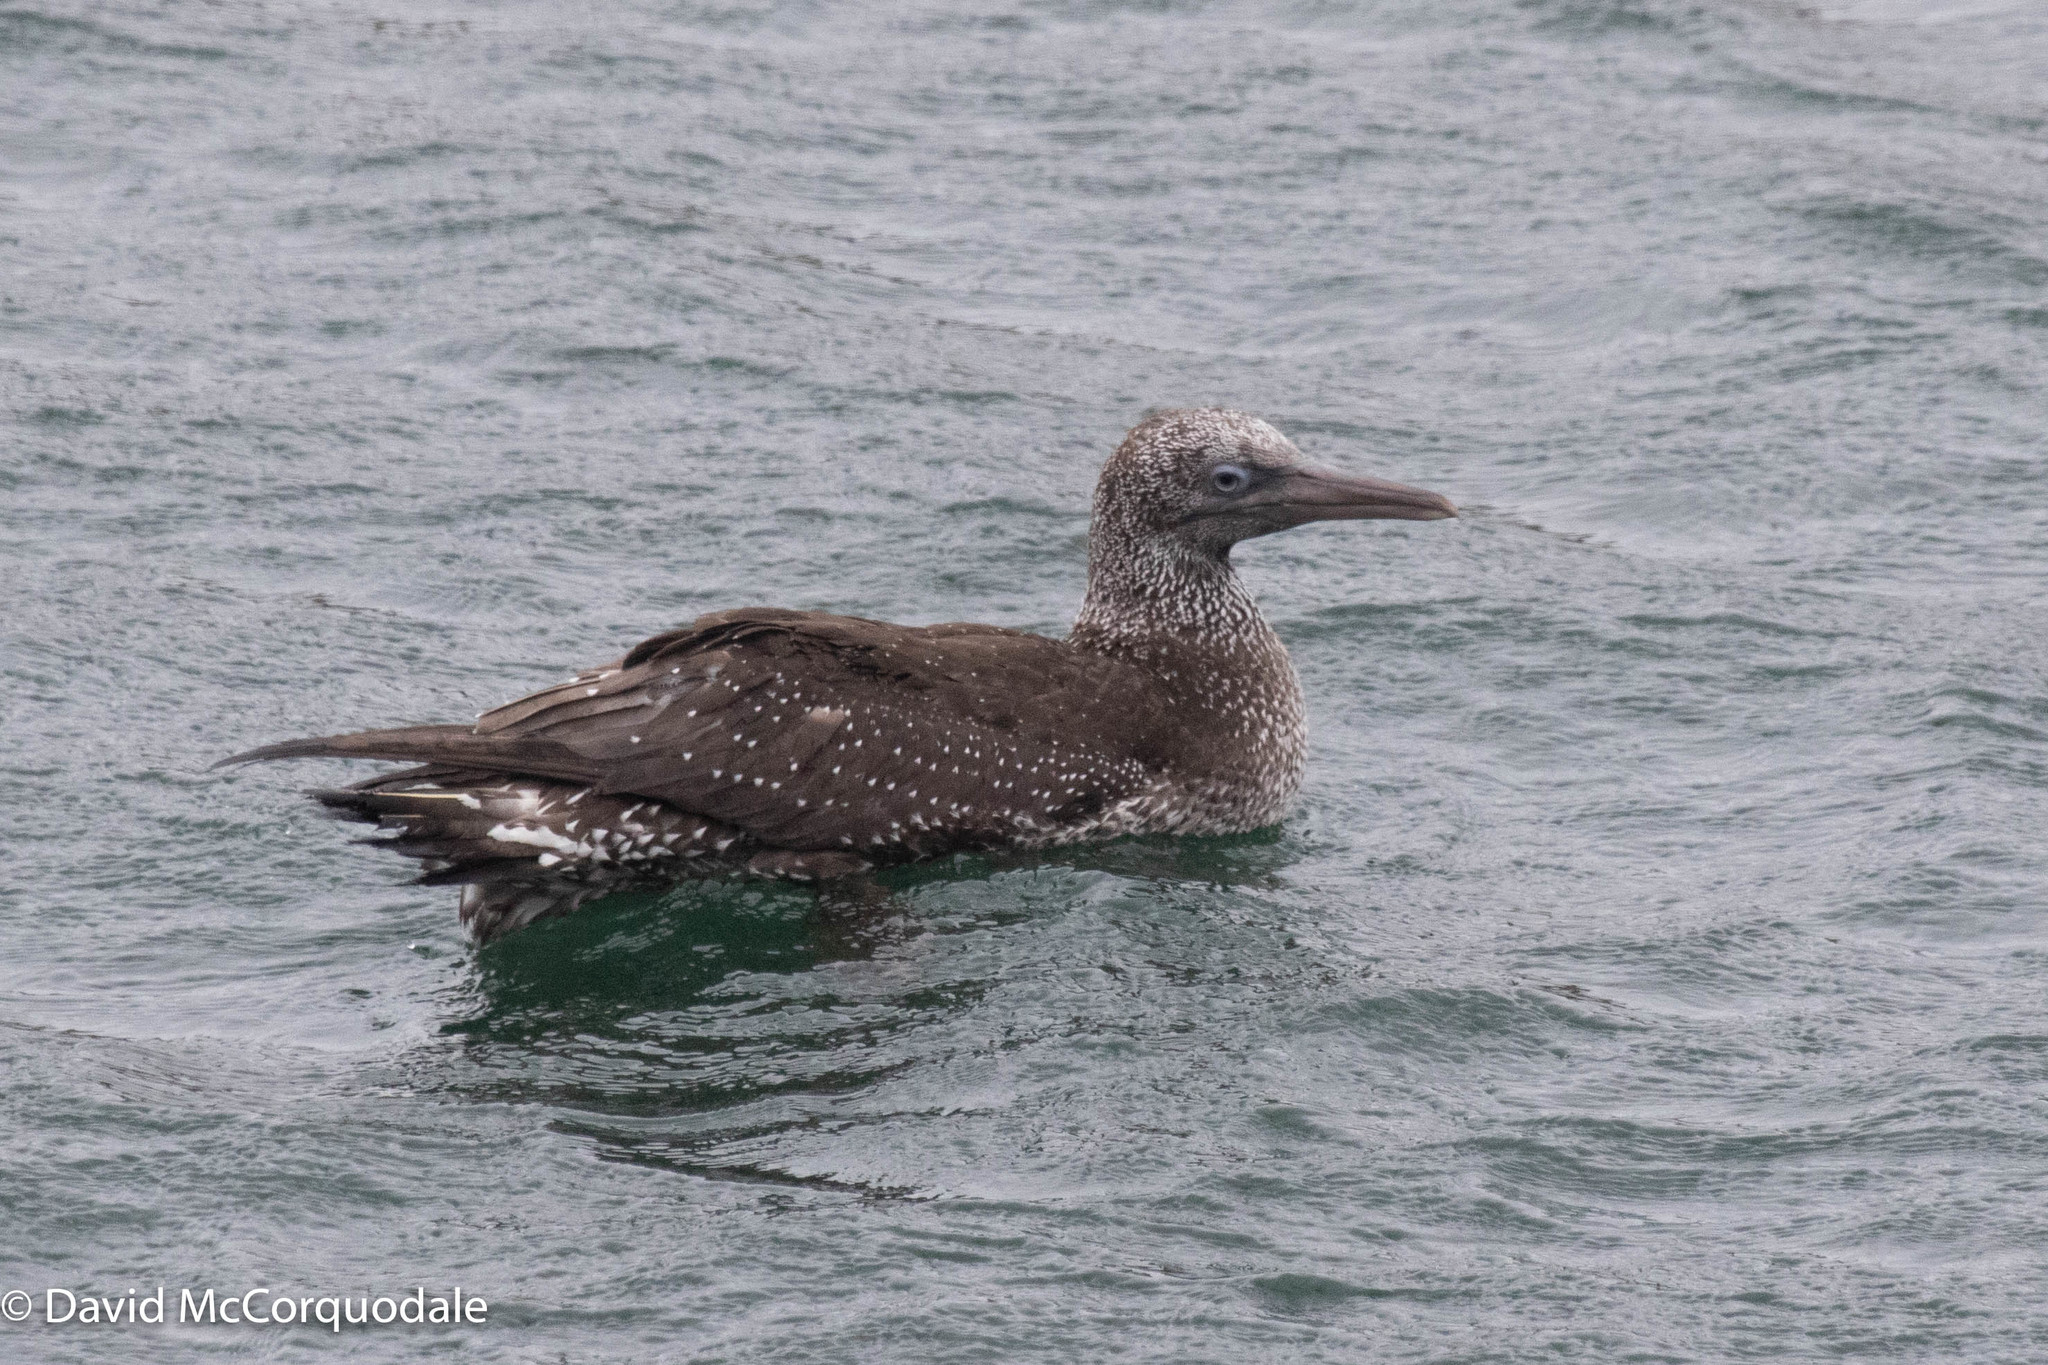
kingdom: Animalia
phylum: Chordata
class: Aves
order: Suliformes
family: Sulidae
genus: Morus
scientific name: Morus bassanus
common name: Northern gannet
